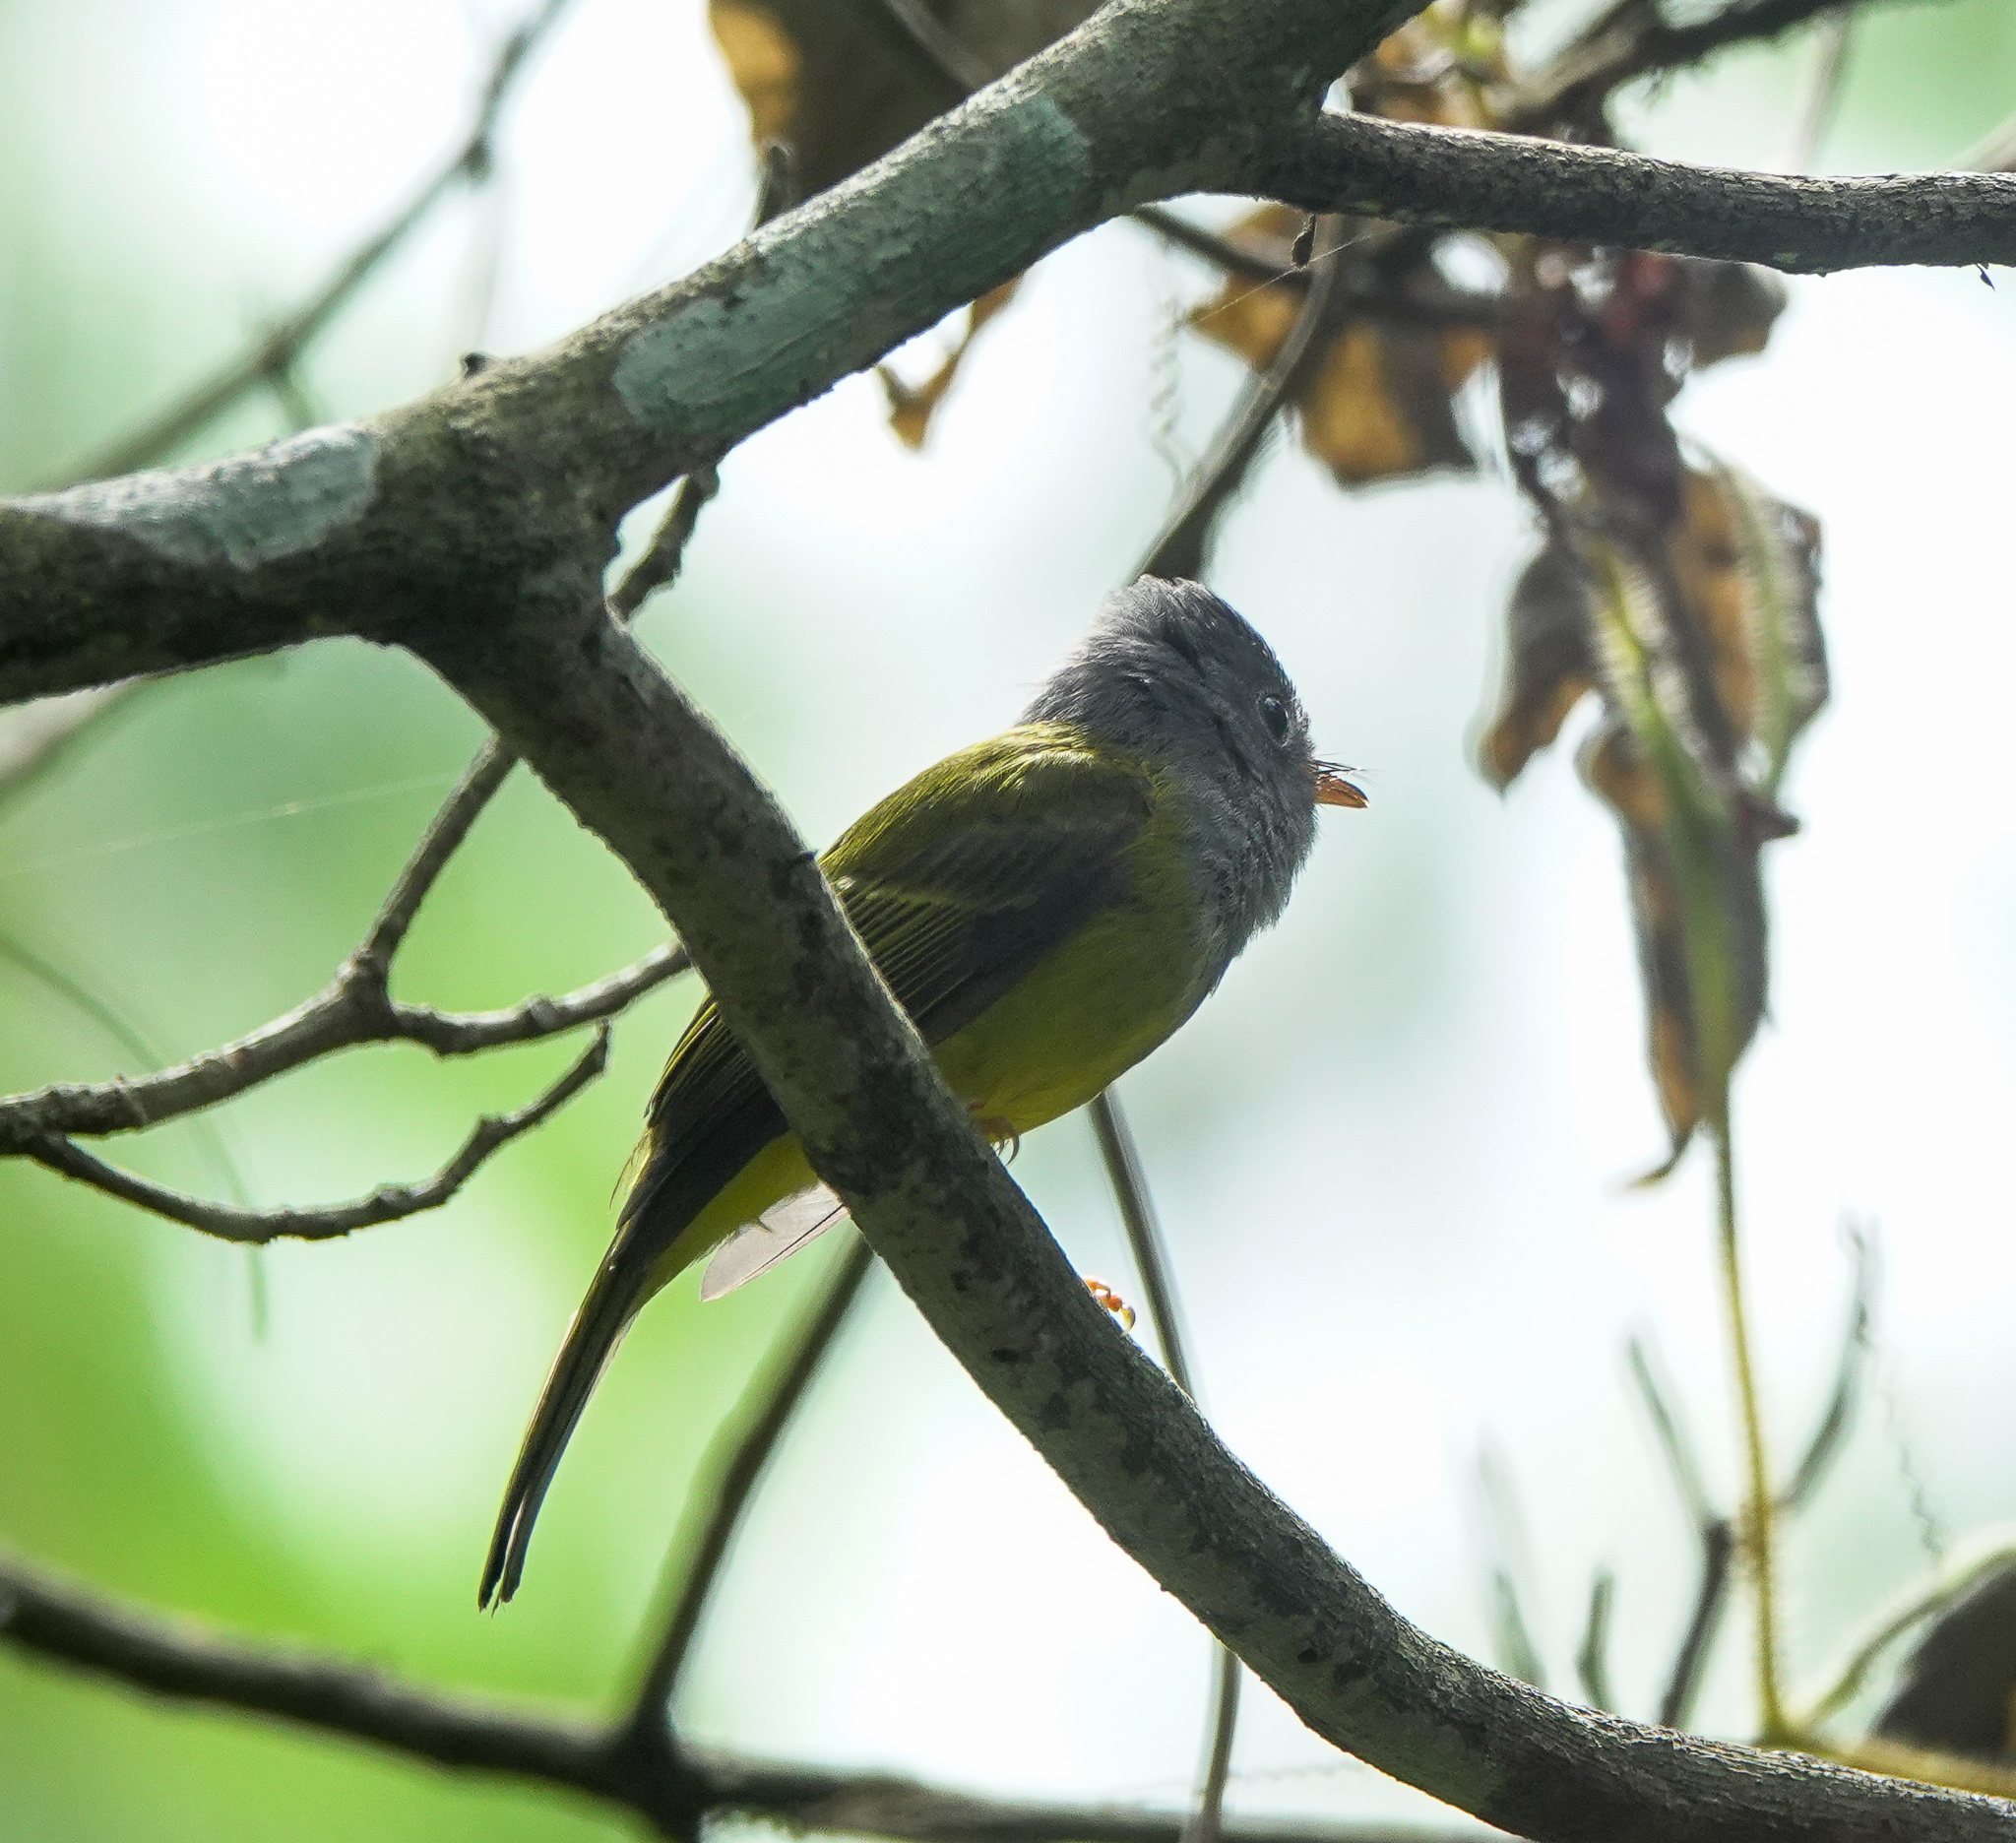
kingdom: Animalia
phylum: Chordata
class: Aves
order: Passeriformes
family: Stenostiridae
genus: Culicicapa
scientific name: Culicicapa ceylonensis
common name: Grey-headed canary-flycatcher
